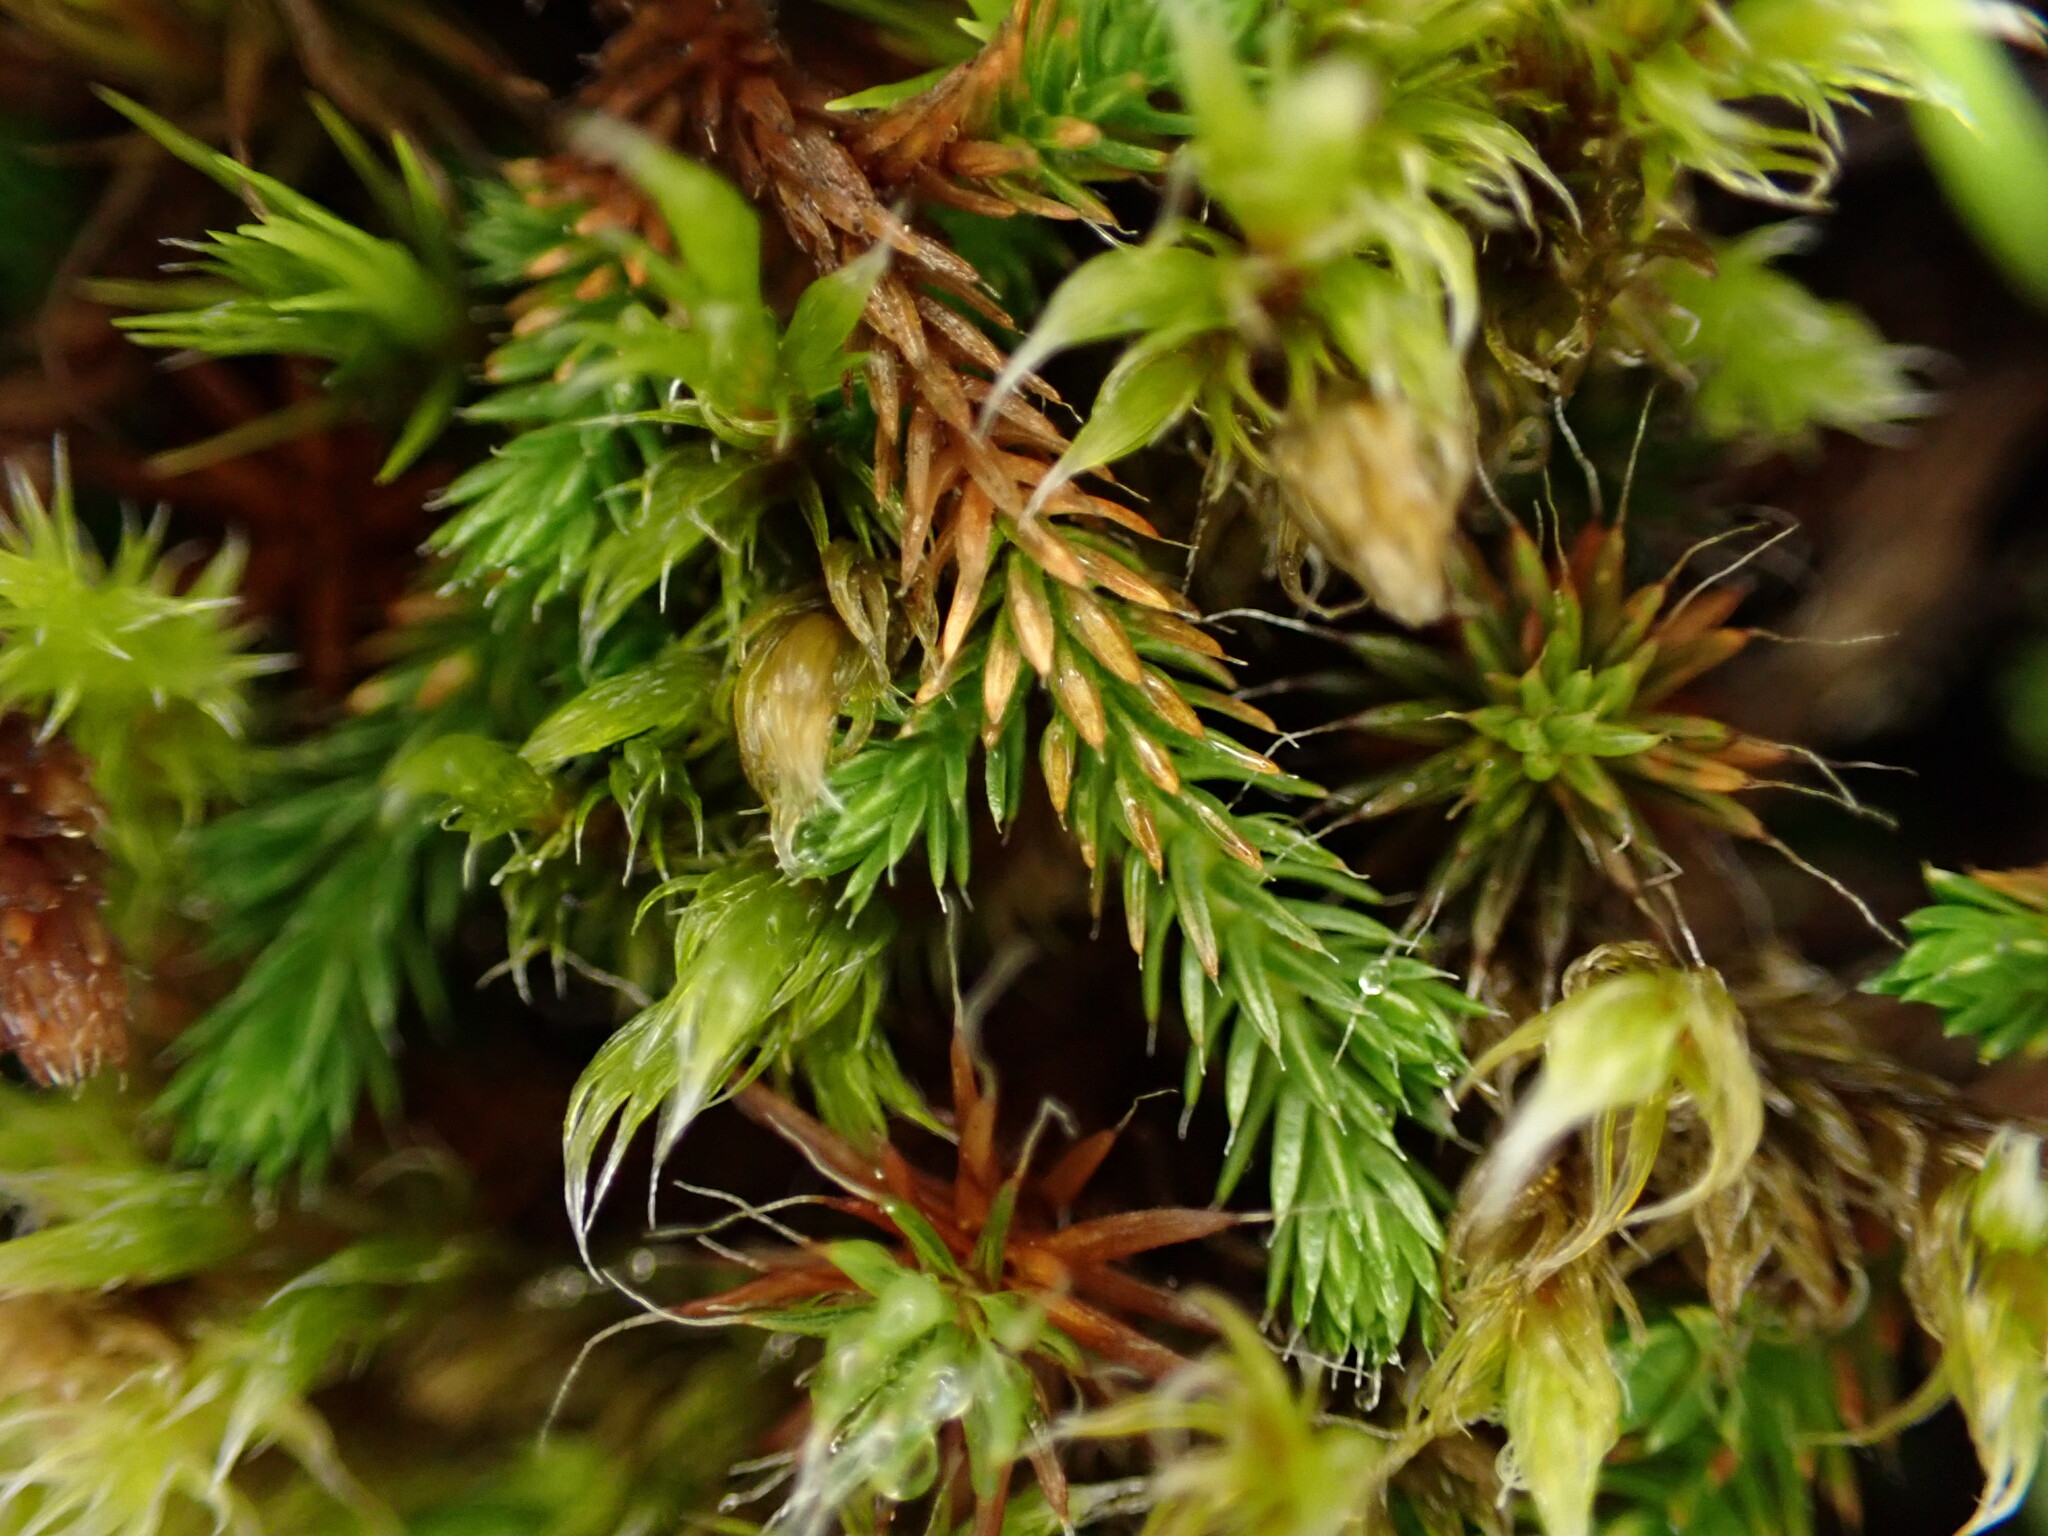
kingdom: Plantae
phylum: Tracheophyta
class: Lycopodiopsida
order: Selaginellales
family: Selaginellaceae
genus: Selaginella
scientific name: Selaginella wallacei
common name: Wallace's selaginella
